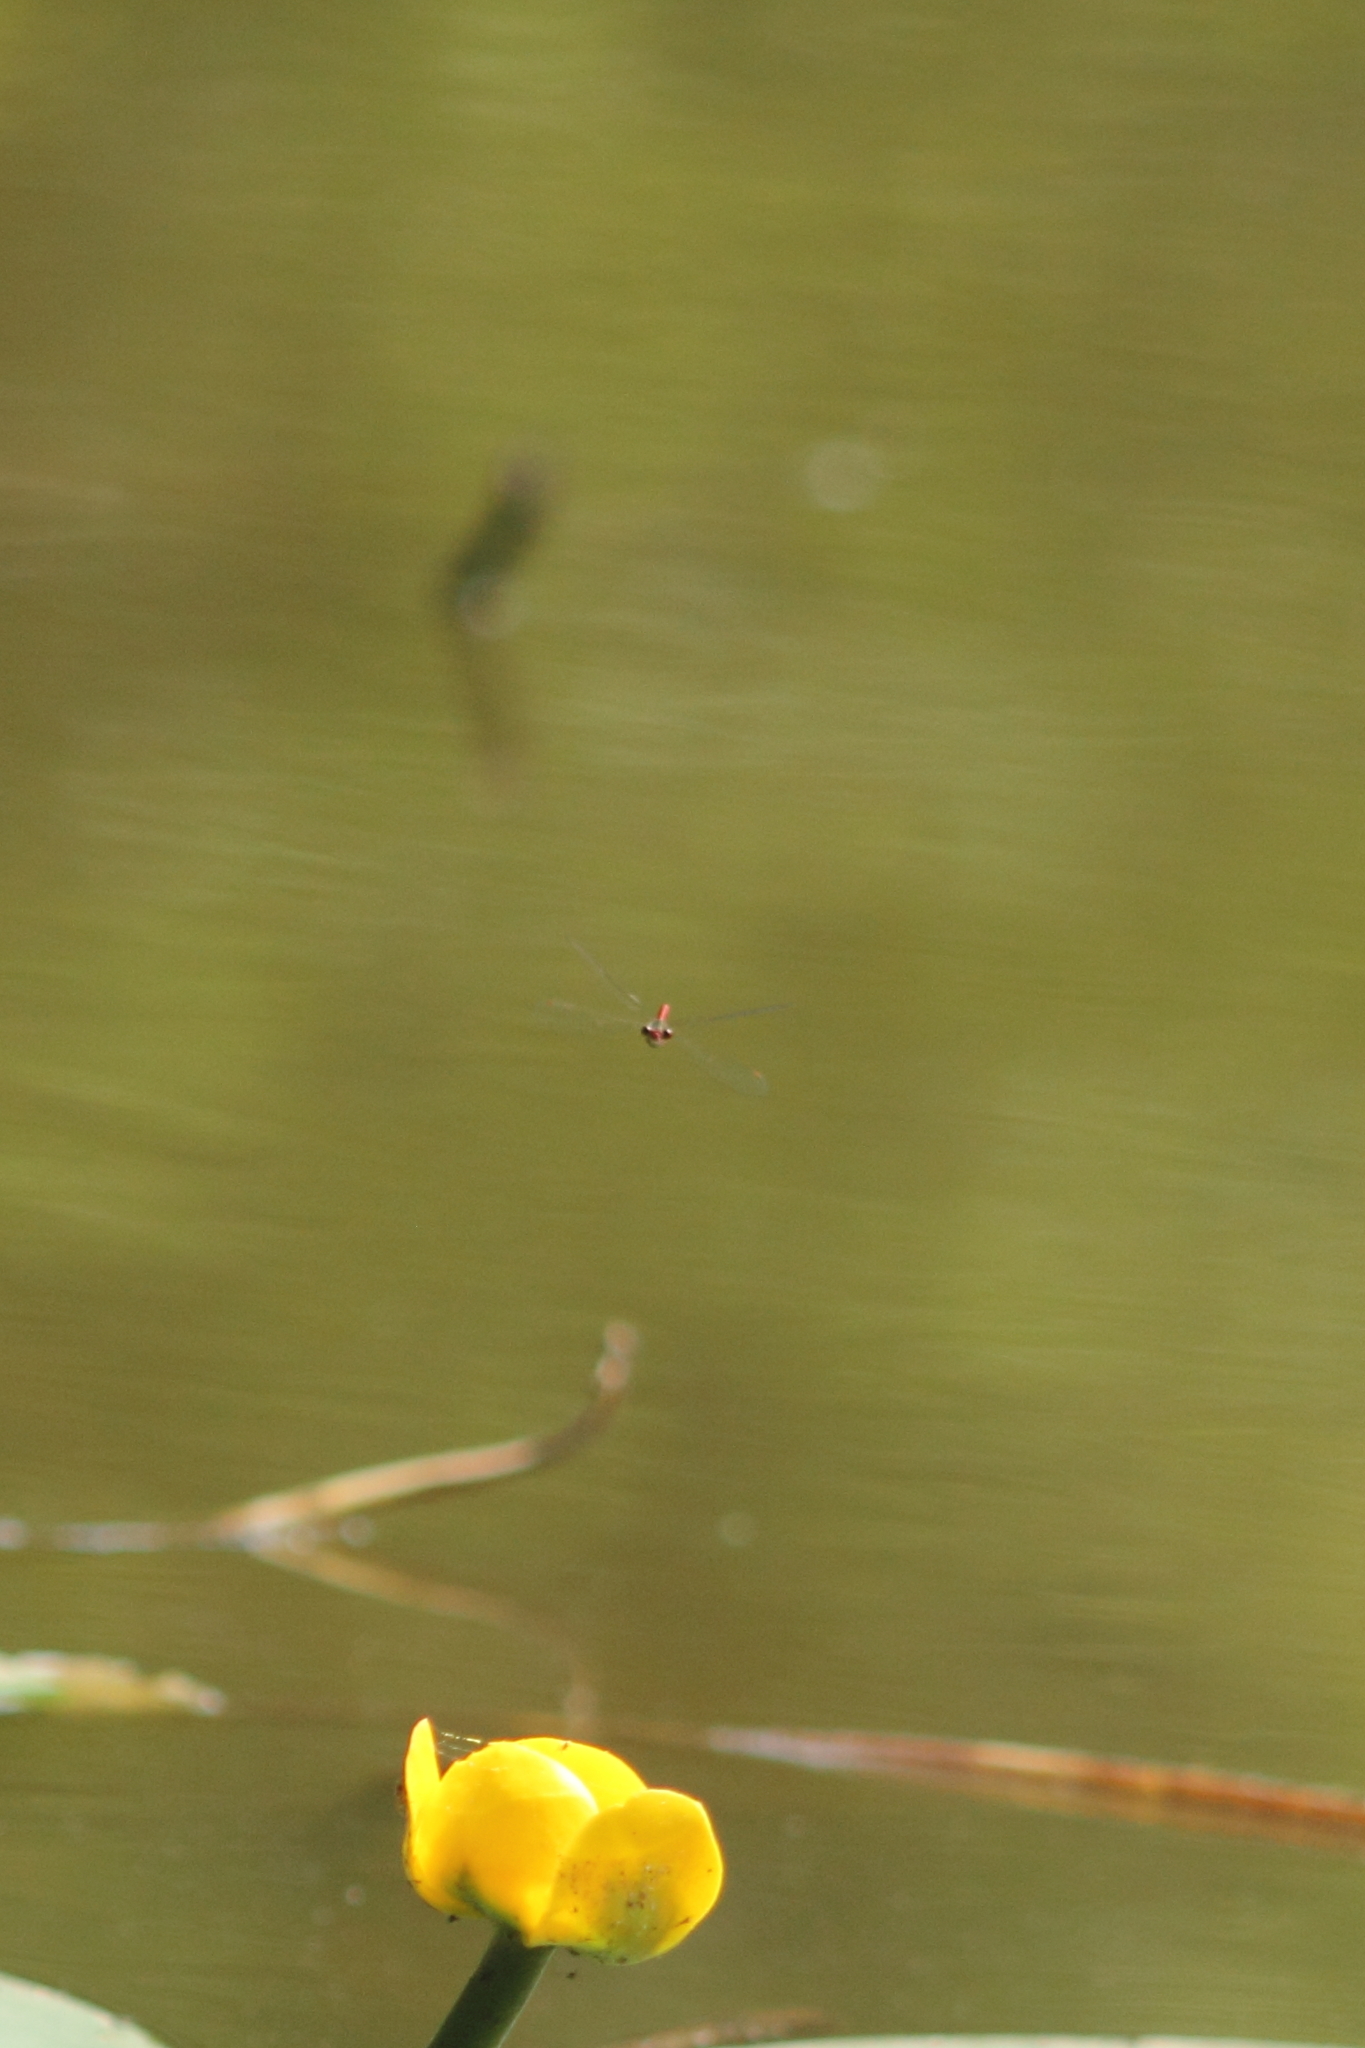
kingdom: Animalia
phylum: Arthropoda
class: Insecta
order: Odonata
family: Coenagrionidae
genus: Ceriagrion
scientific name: Ceriagrion tenellum
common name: Small red damselfly
